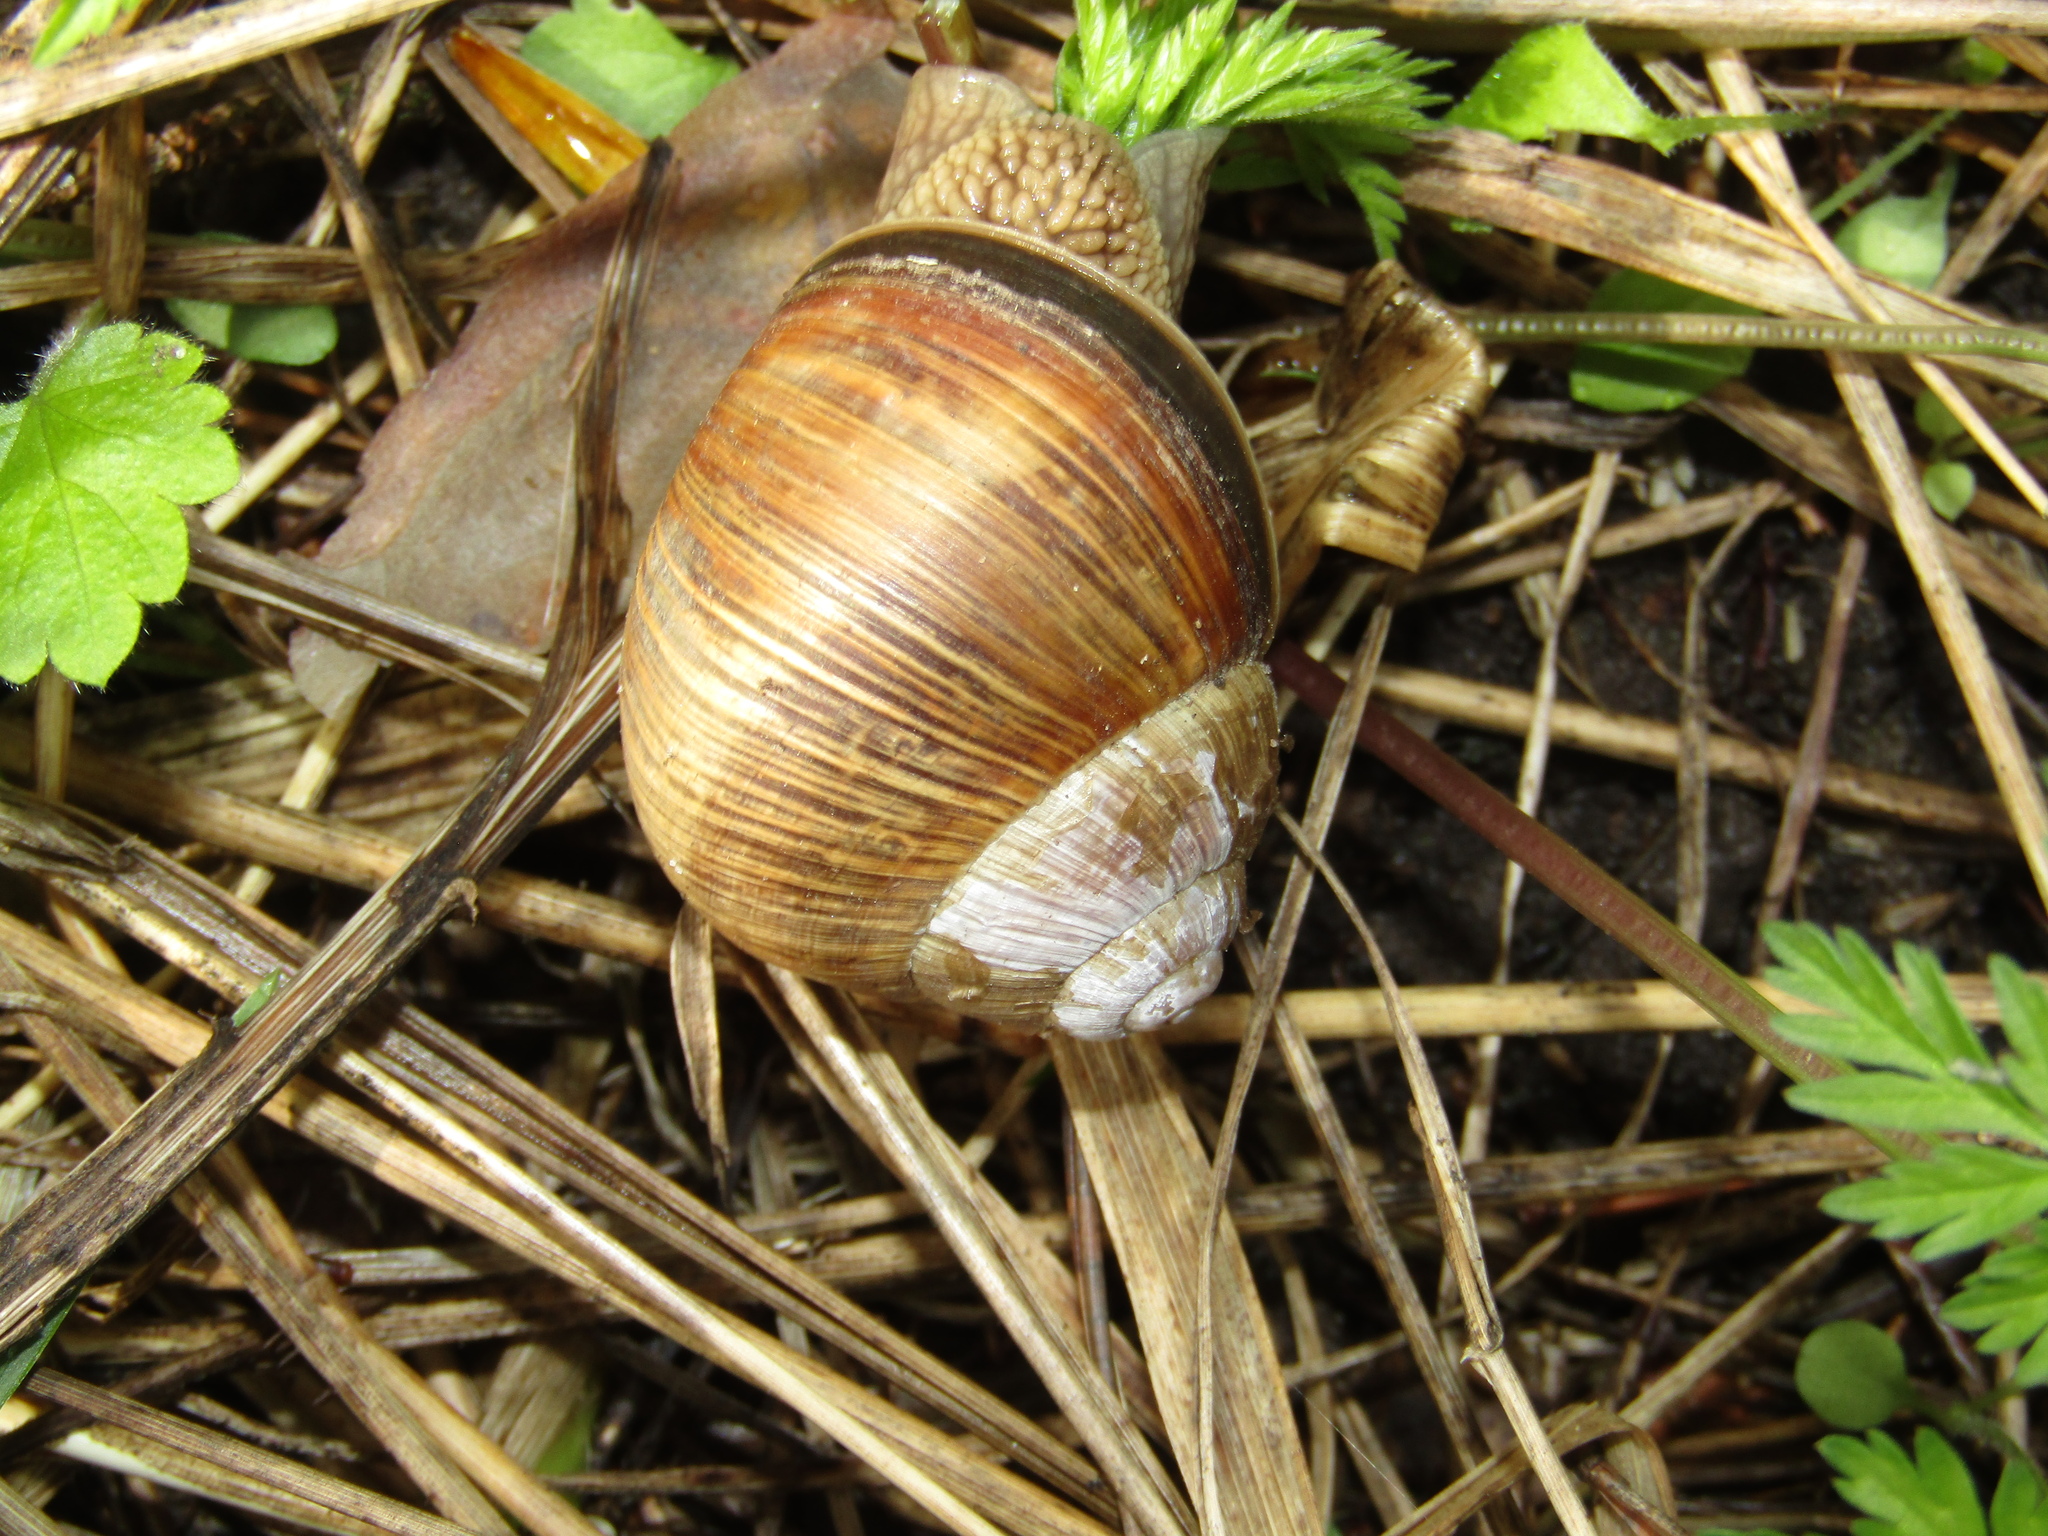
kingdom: Animalia
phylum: Mollusca
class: Gastropoda
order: Stylommatophora
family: Helicidae
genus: Helix
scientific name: Helix pomatia
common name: Roman snail
